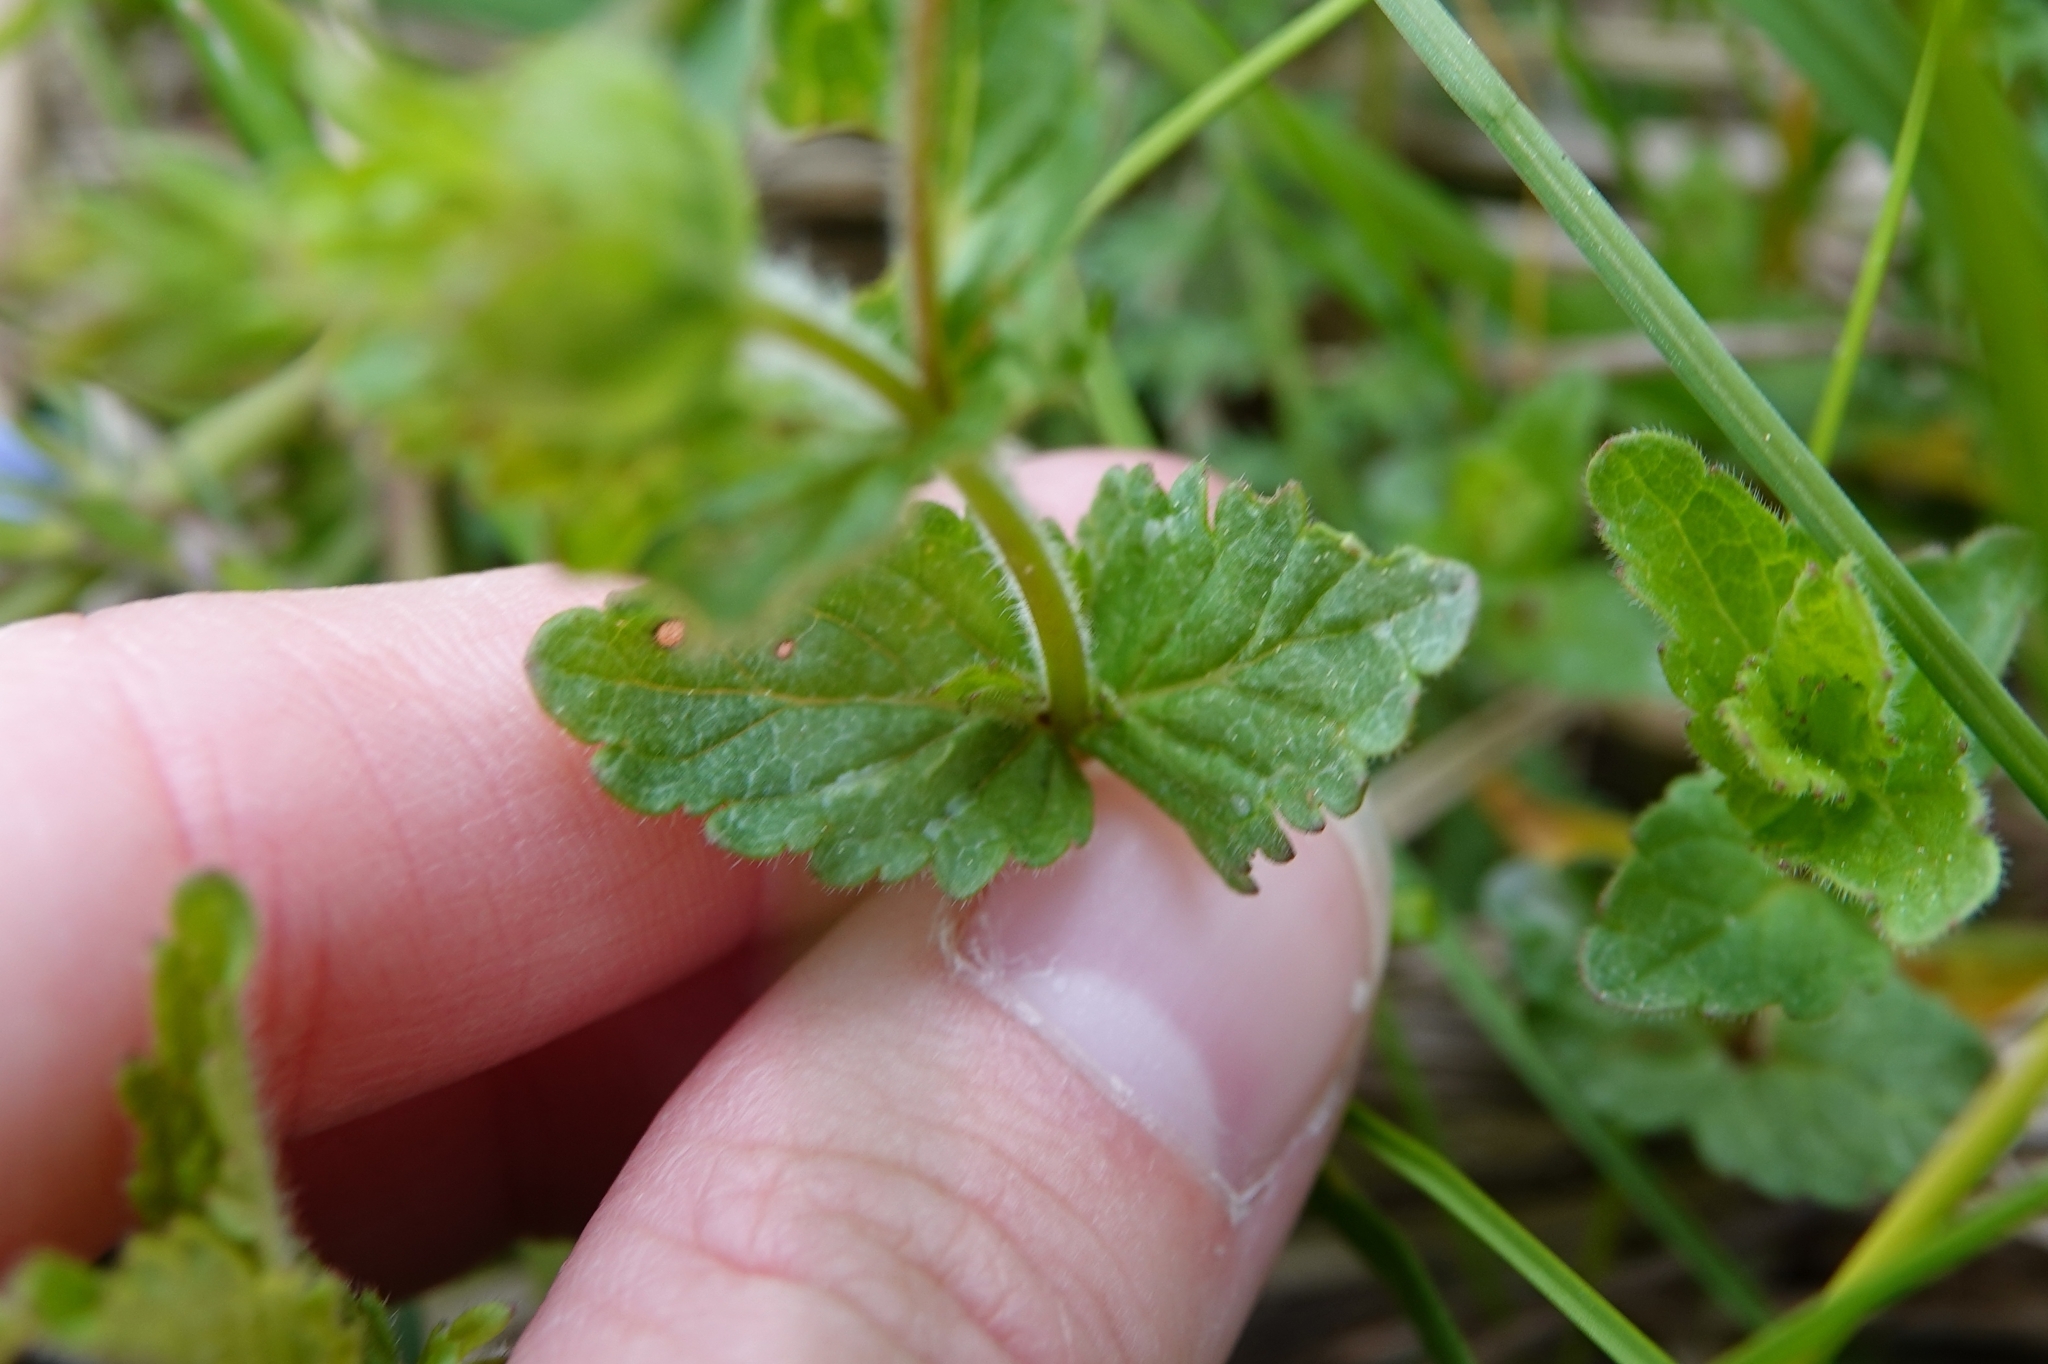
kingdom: Plantae
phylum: Tracheophyta
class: Magnoliopsida
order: Lamiales
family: Plantaginaceae
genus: Veronica
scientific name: Veronica chamaedrys
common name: Germander speedwell
